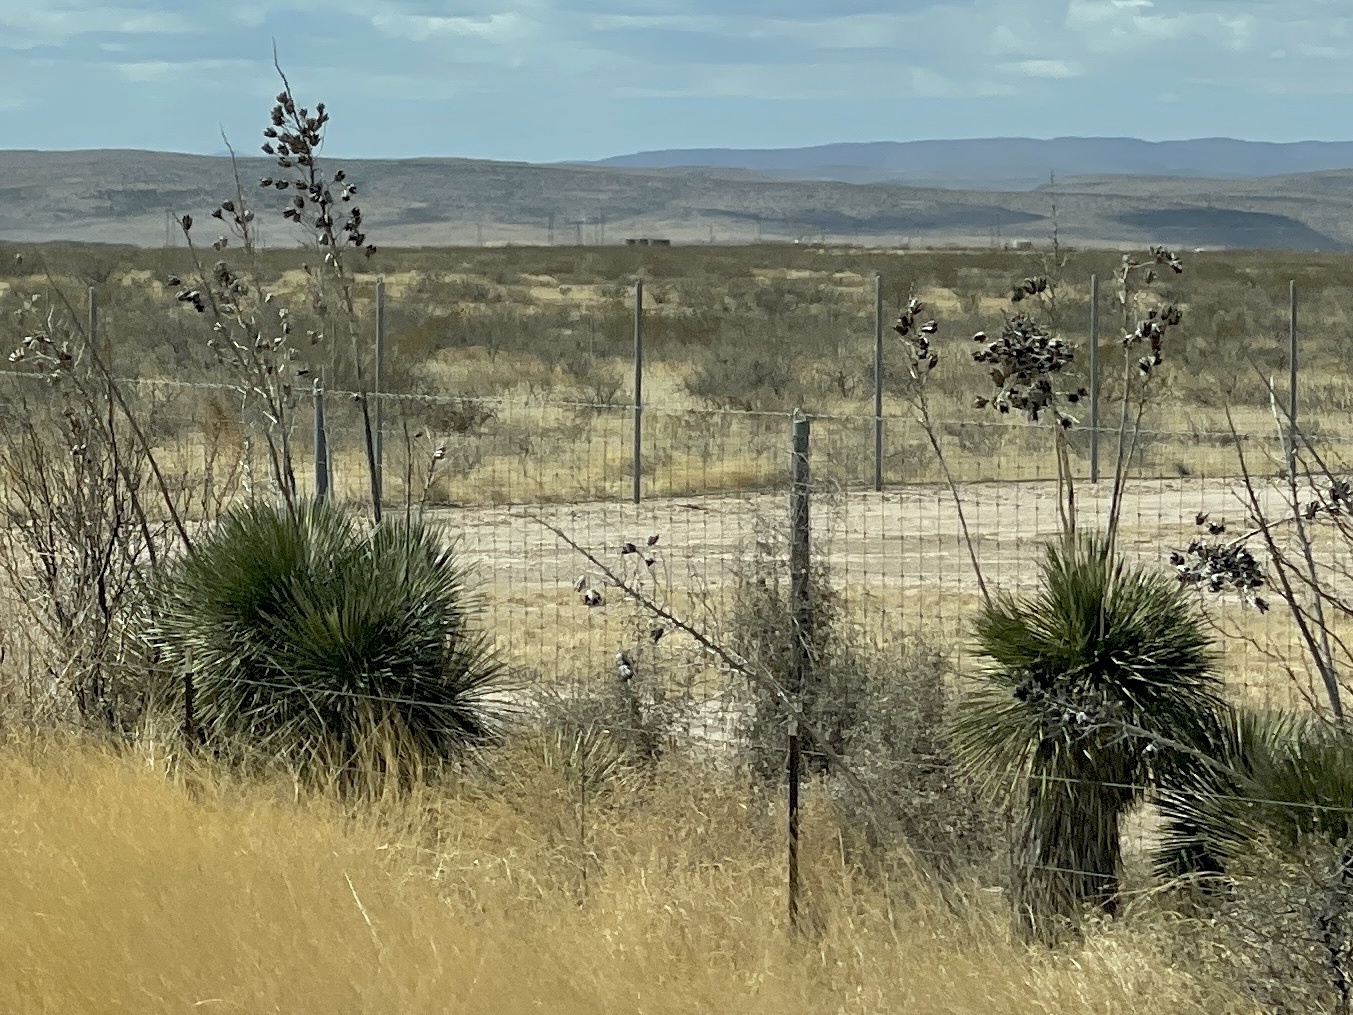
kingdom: Plantae
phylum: Tracheophyta
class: Liliopsida
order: Asparagales
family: Asparagaceae
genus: Yucca
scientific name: Yucca elata
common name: Palmella
